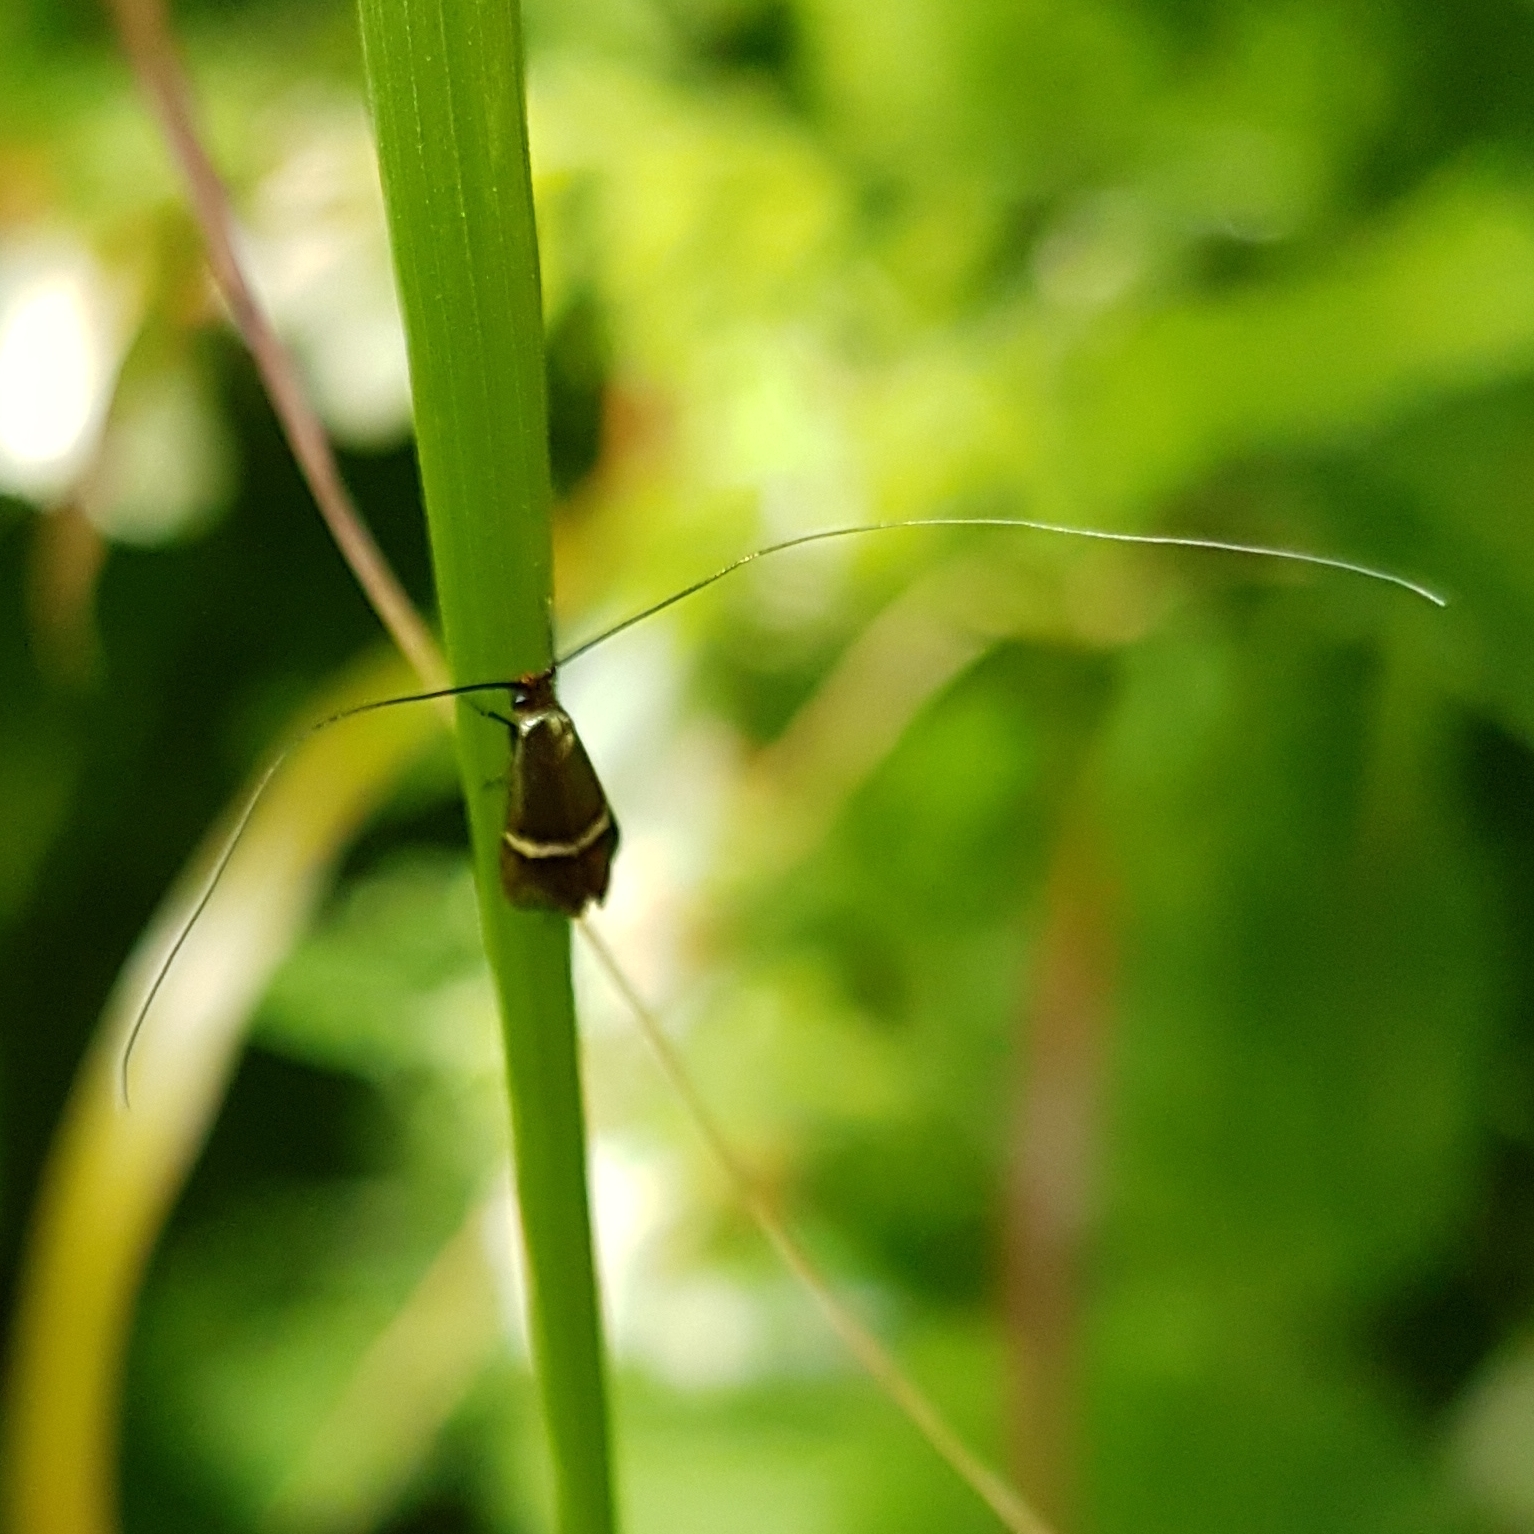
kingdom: Animalia
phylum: Arthropoda
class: Insecta
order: Lepidoptera
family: Adelidae
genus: Adela
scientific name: Adela australis
